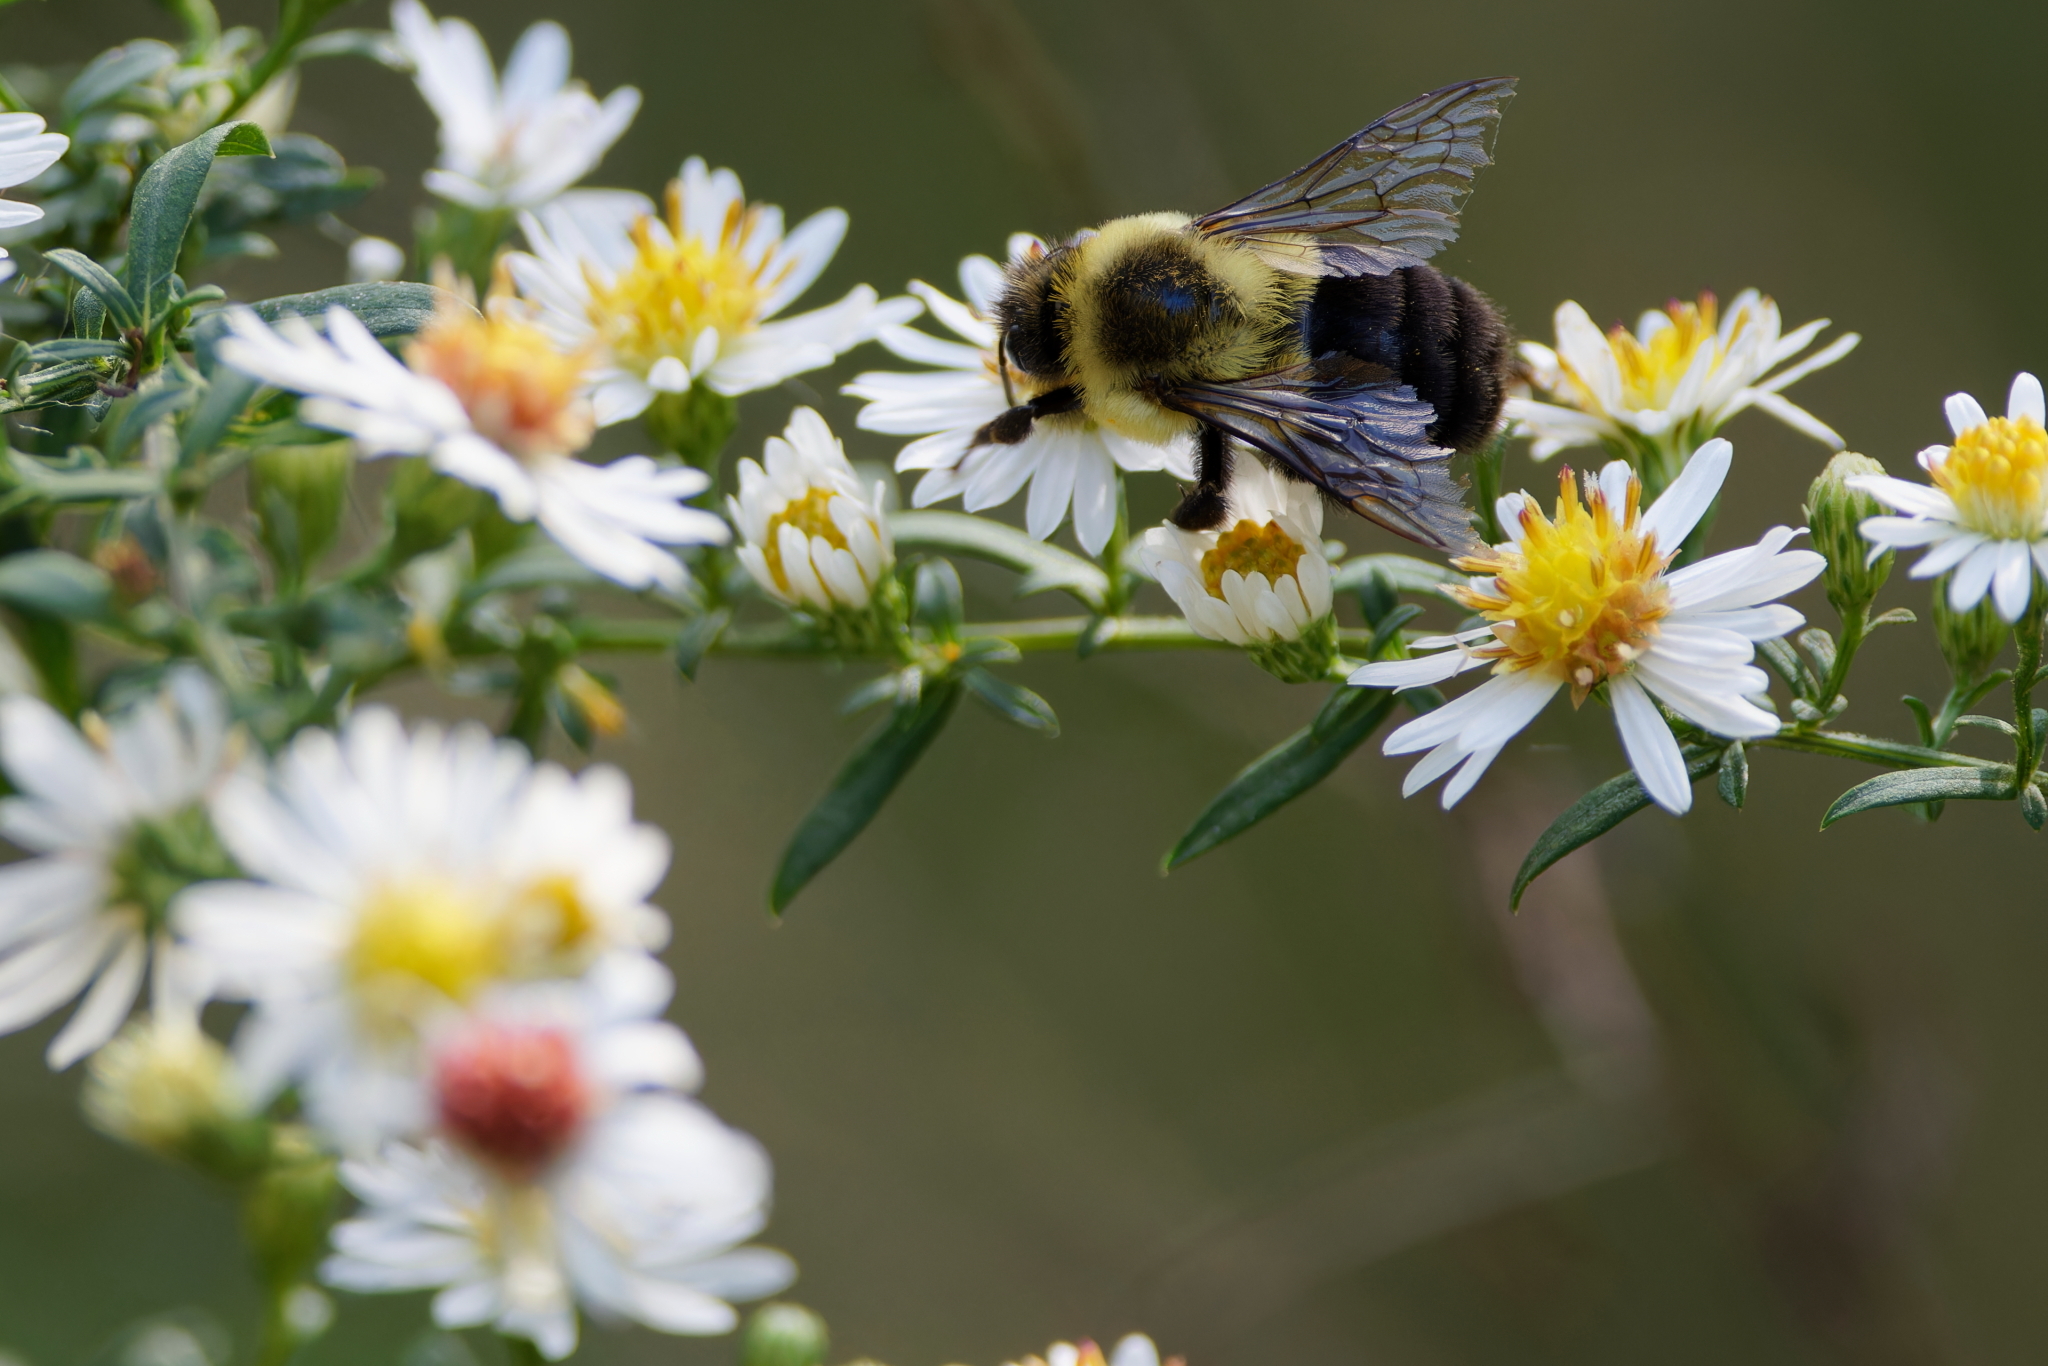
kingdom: Animalia
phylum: Arthropoda
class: Insecta
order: Hymenoptera
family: Apidae
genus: Bombus
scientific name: Bombus impatiens
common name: Common eastern bumble bee
